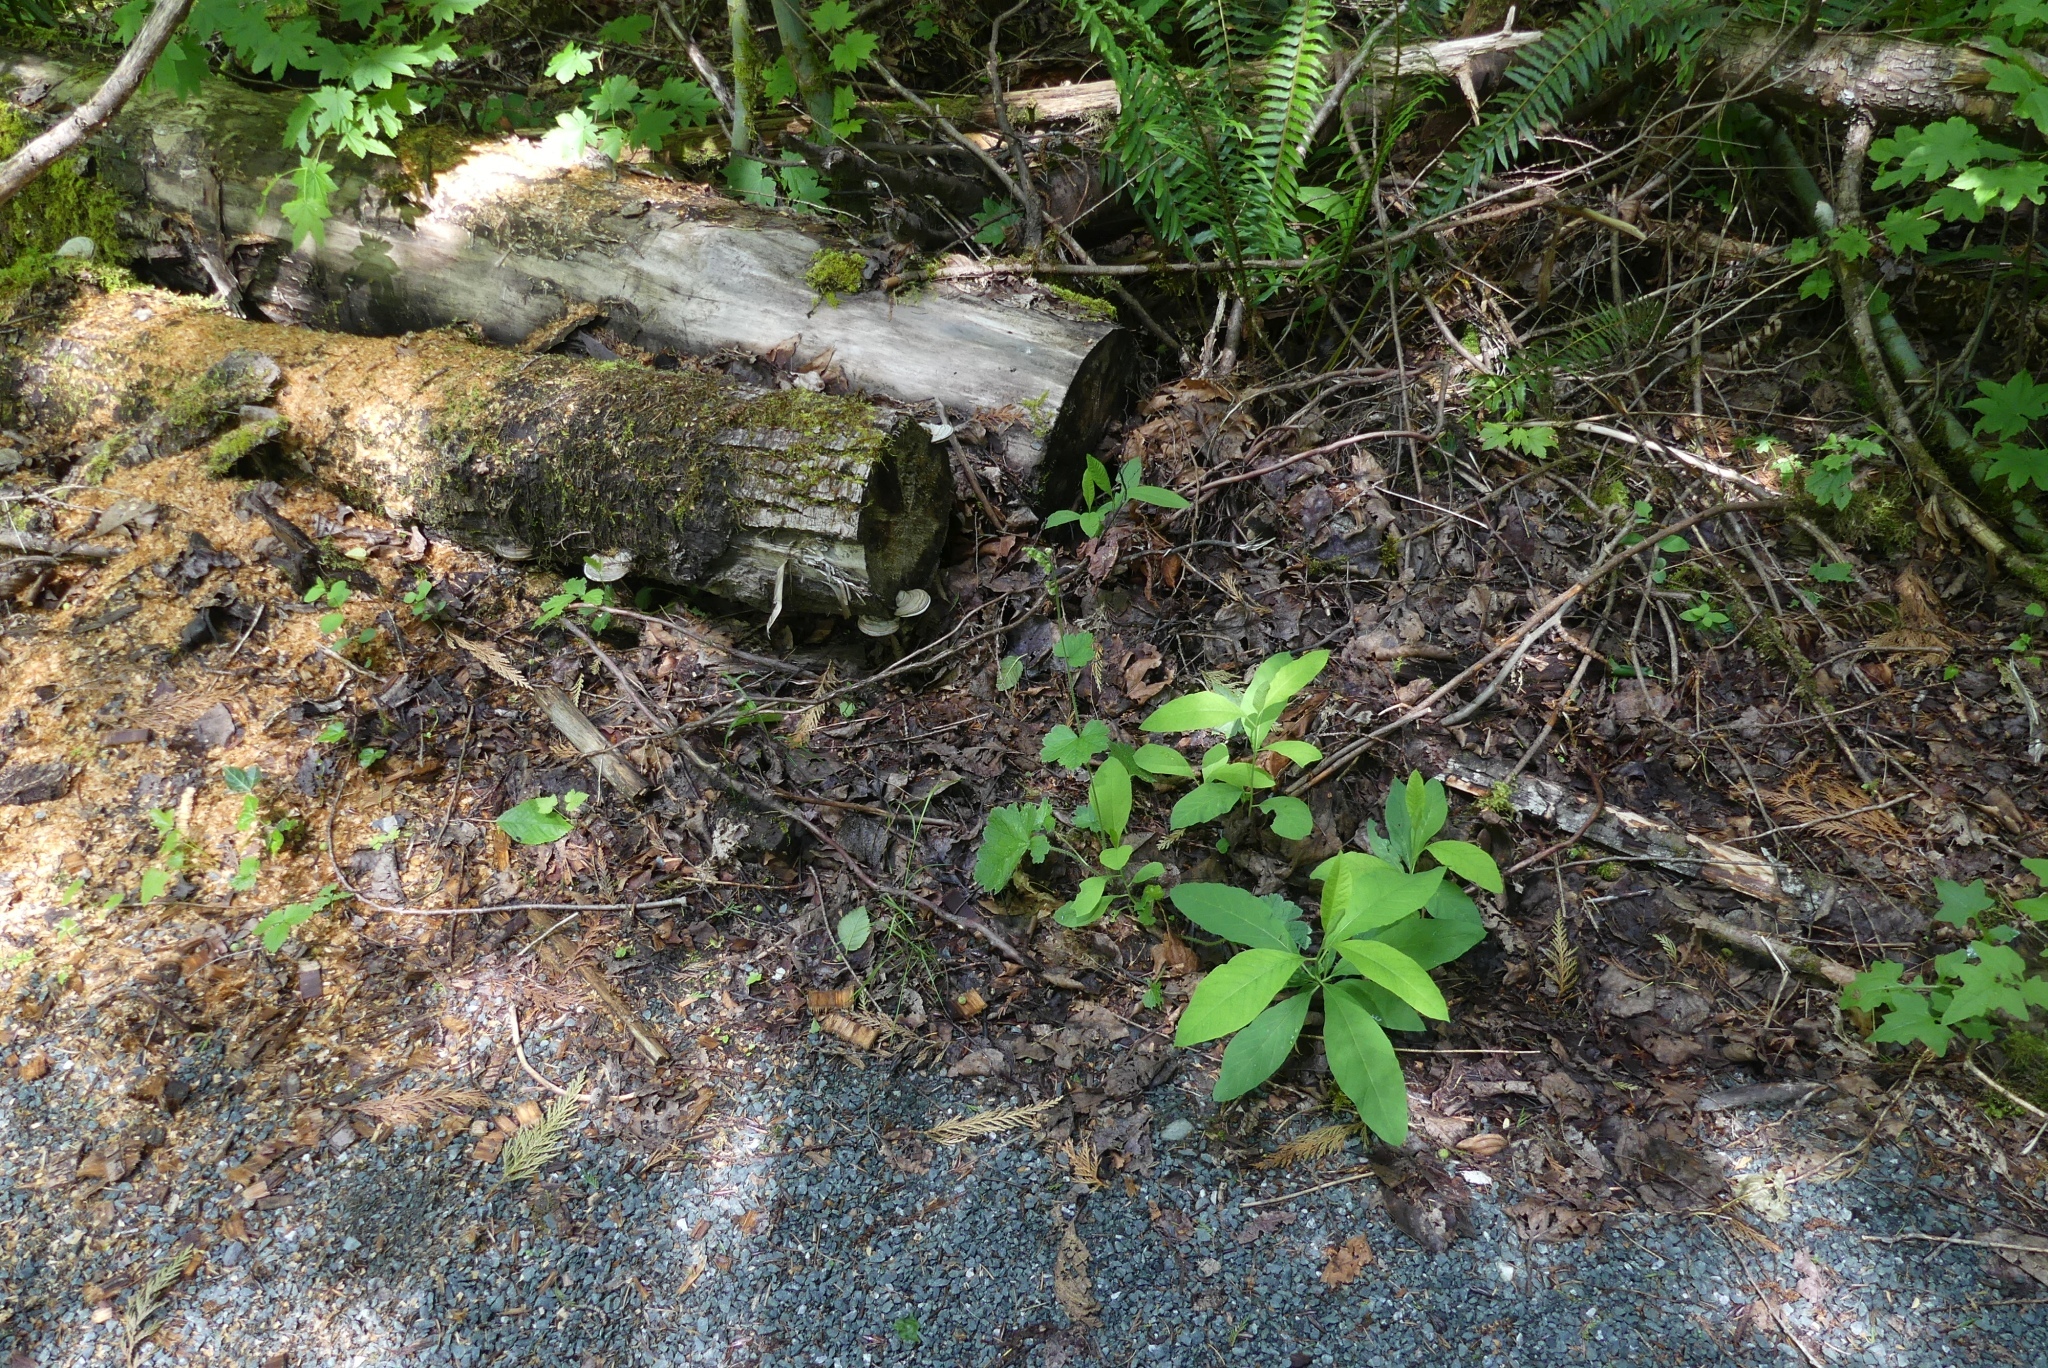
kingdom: Plantae
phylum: Tracheophyta
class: Magnoliopsida
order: Saxifragales
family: Saxifragaceae
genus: Tellima
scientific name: Tellima grandiflora
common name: Fringecups
